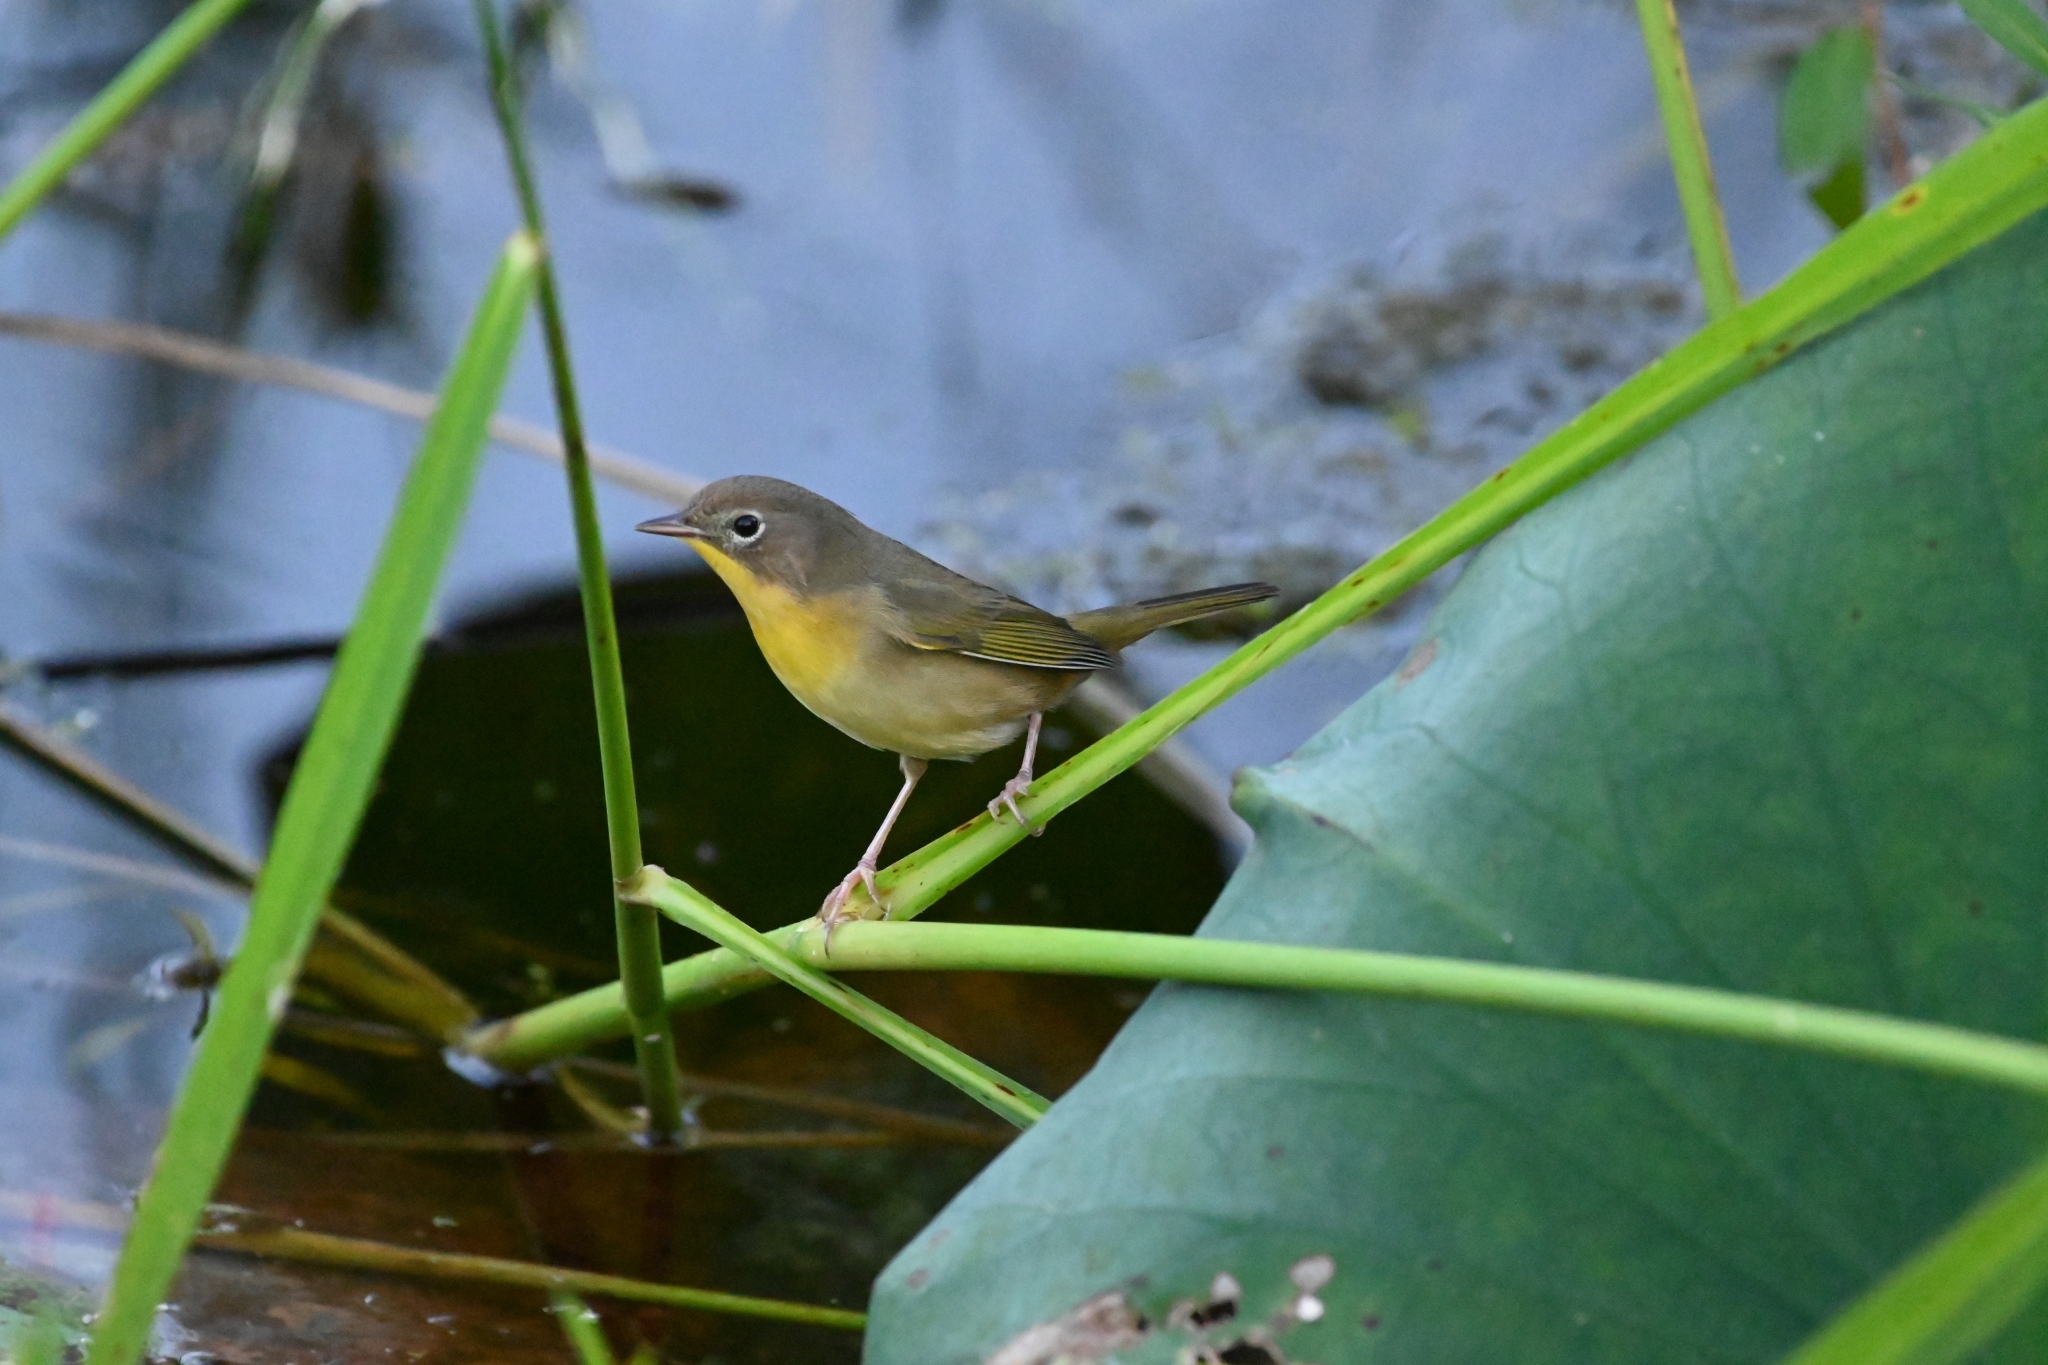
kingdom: Animalia
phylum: Chordata
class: Aves
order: Passeriformes
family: Parulidae
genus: Geothlypis
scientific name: Geothlypis trichas
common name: Common yellowthroat
